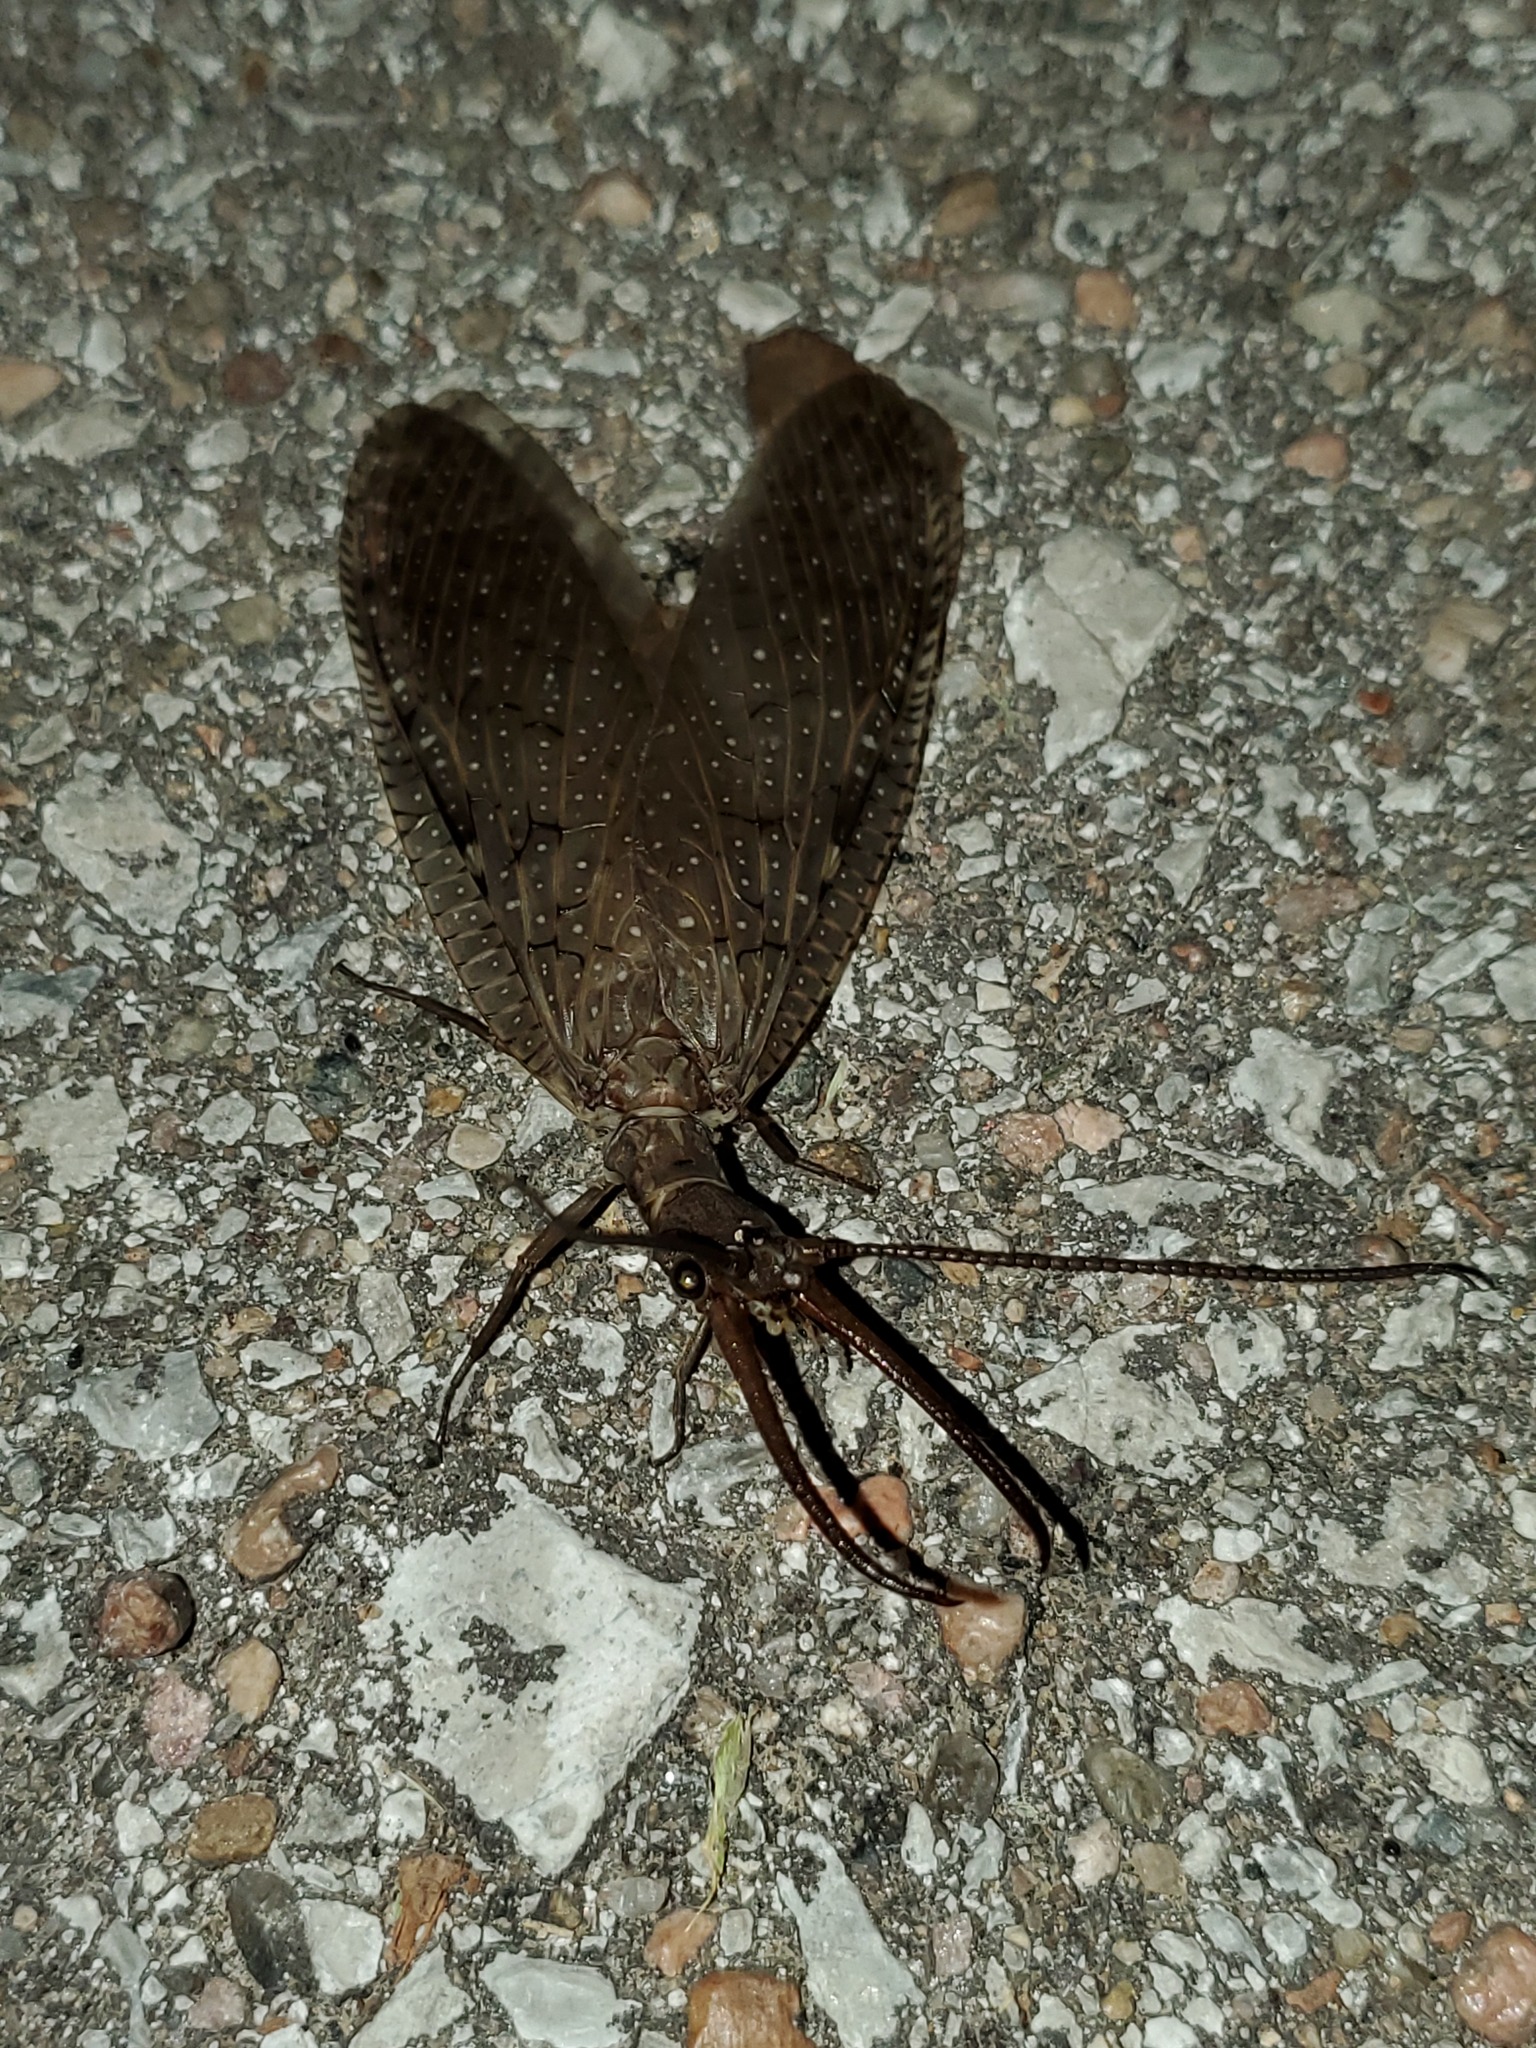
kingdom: Animalia
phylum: Arthropoda
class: Insecta
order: Megaloptera
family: Corydalidae
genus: Corydalus
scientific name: Corydalus cornutus
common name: Dobsonfly
